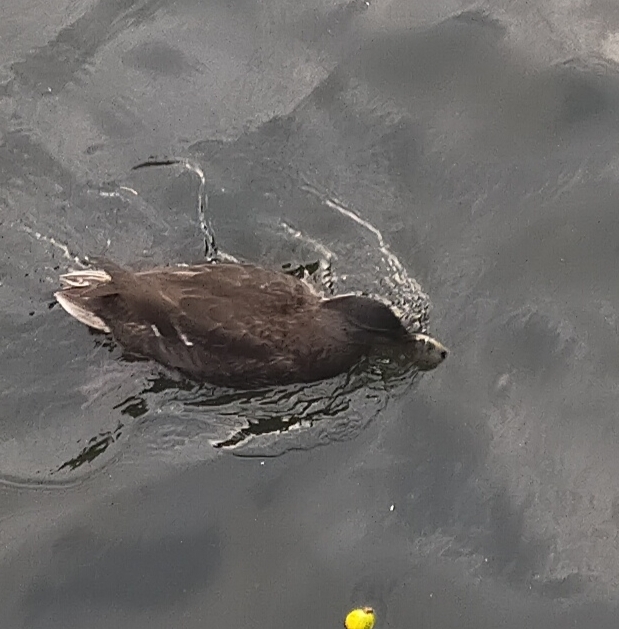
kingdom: Animalia
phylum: Chordata
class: Aves
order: Anseriformes
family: Anatidae
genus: Anas
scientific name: Anas platyrhynchos
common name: Mallard
